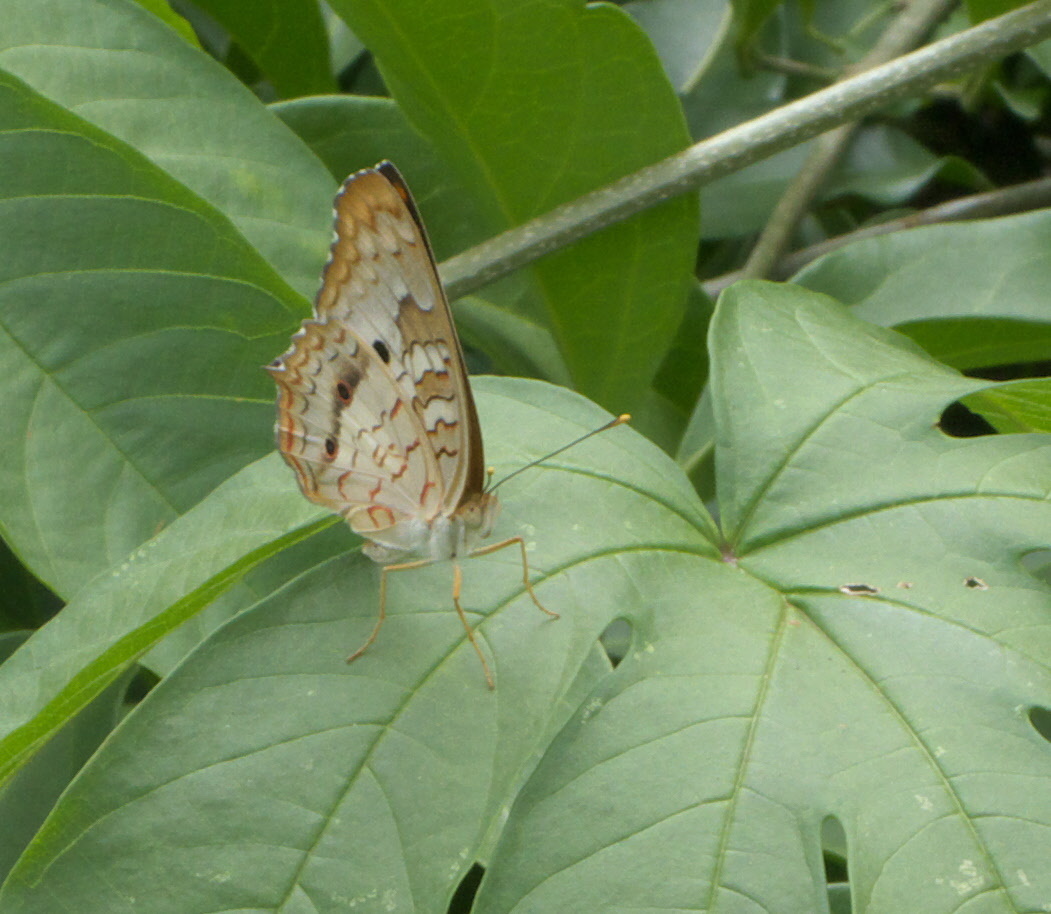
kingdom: Animalia
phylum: Arthropoda
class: Insecta
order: Lepidoptera
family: Nymphalidae
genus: Anartia
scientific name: Anartia jatrophae
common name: White peacock
